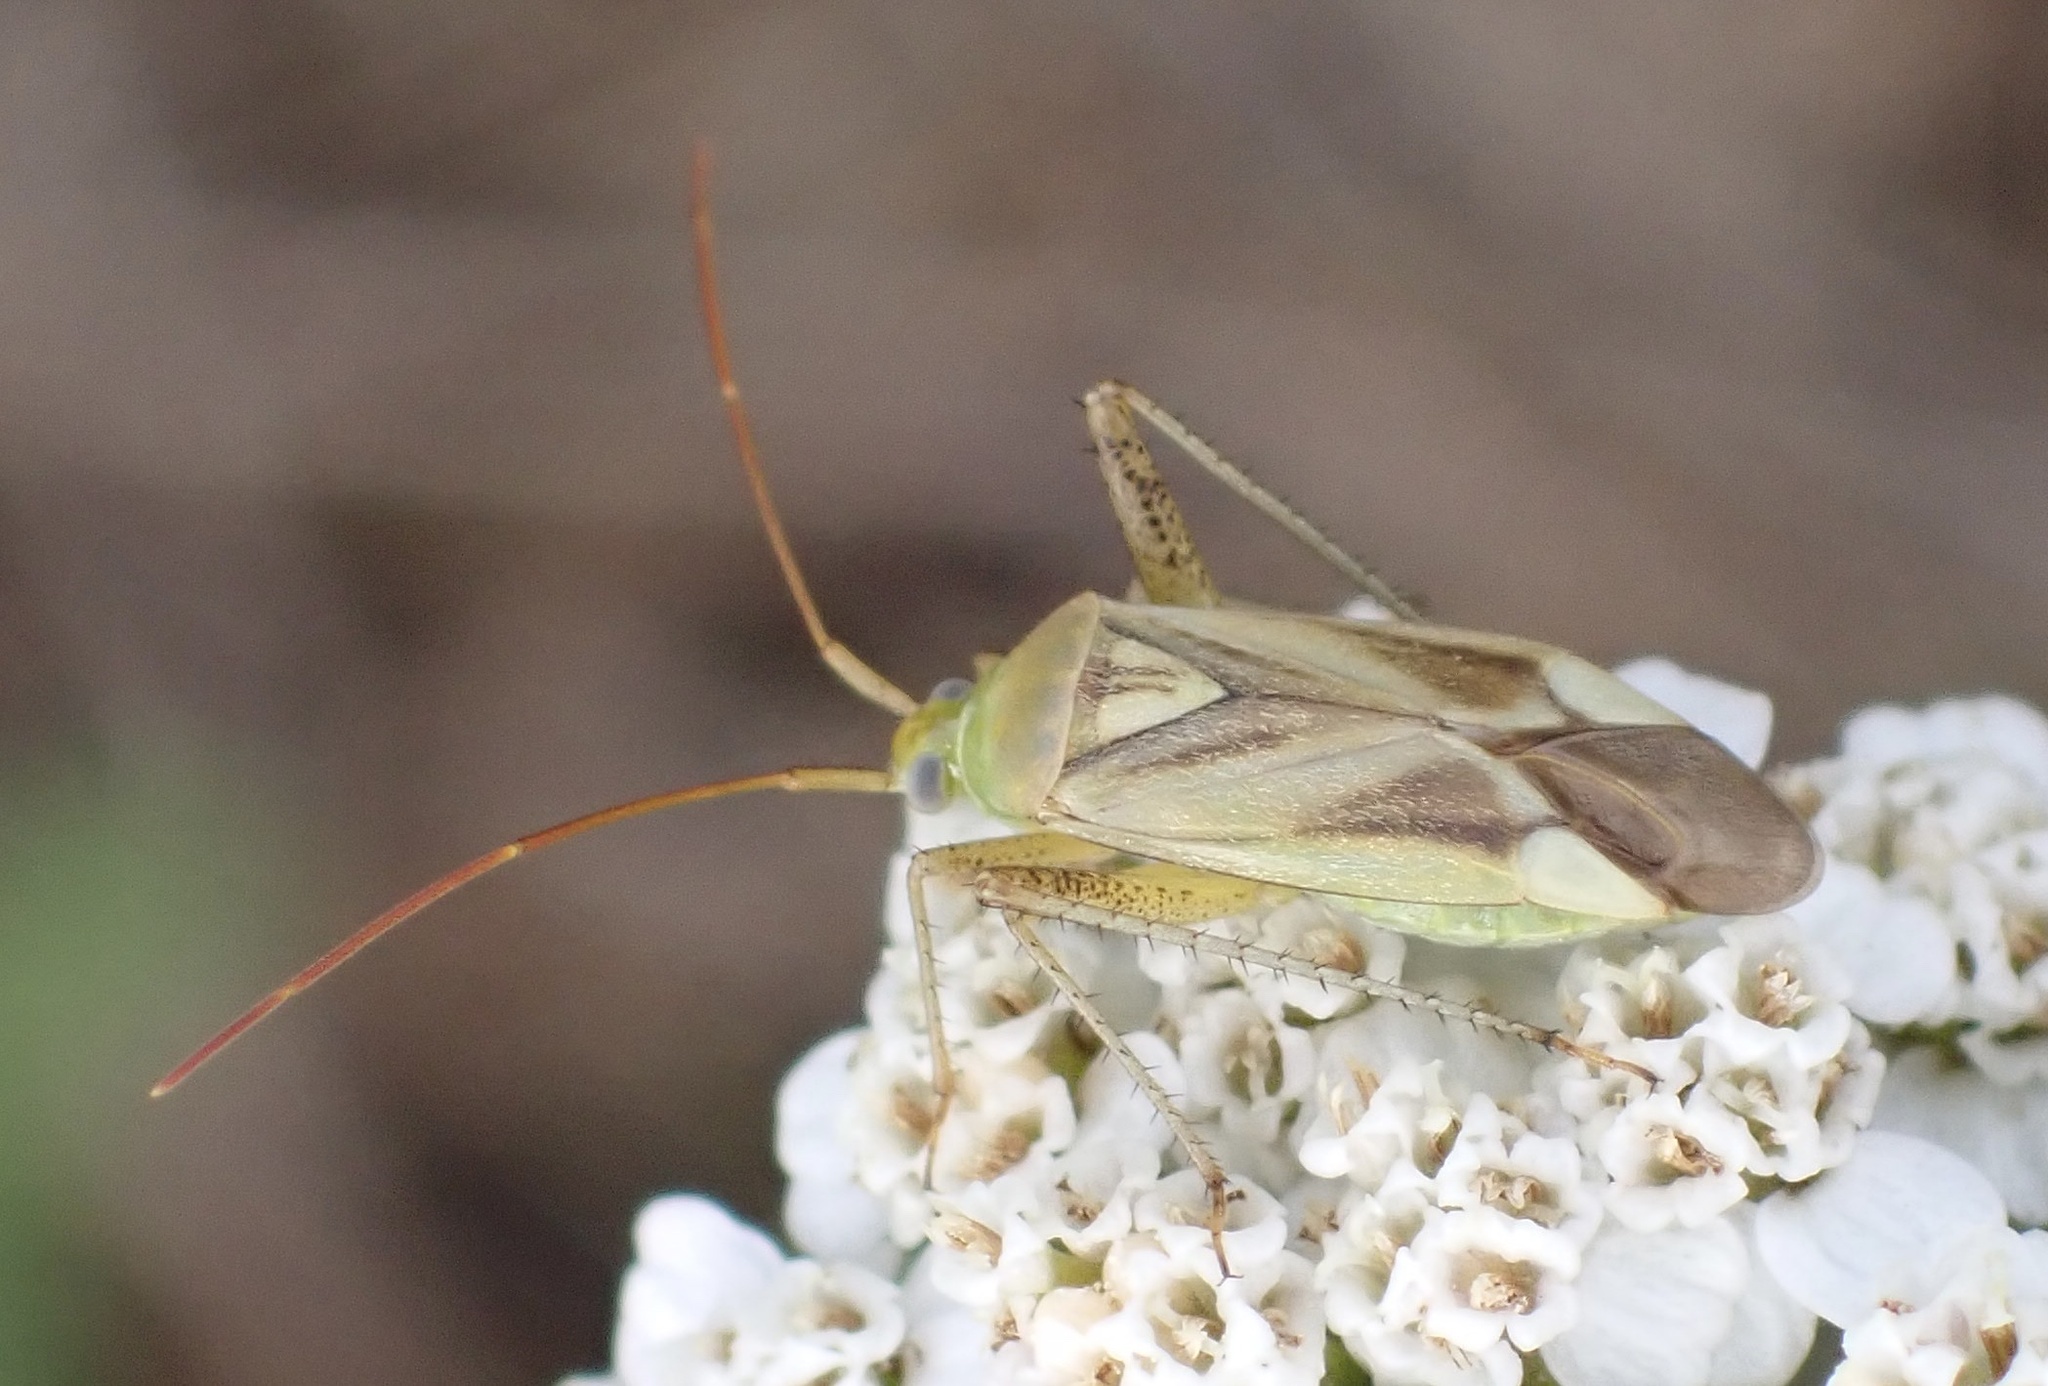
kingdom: Animalia
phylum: Arthropoda
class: Insecta
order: Hemiptera
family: Miridae
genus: Adelphocoris
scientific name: Adelphocoris lineolatus
